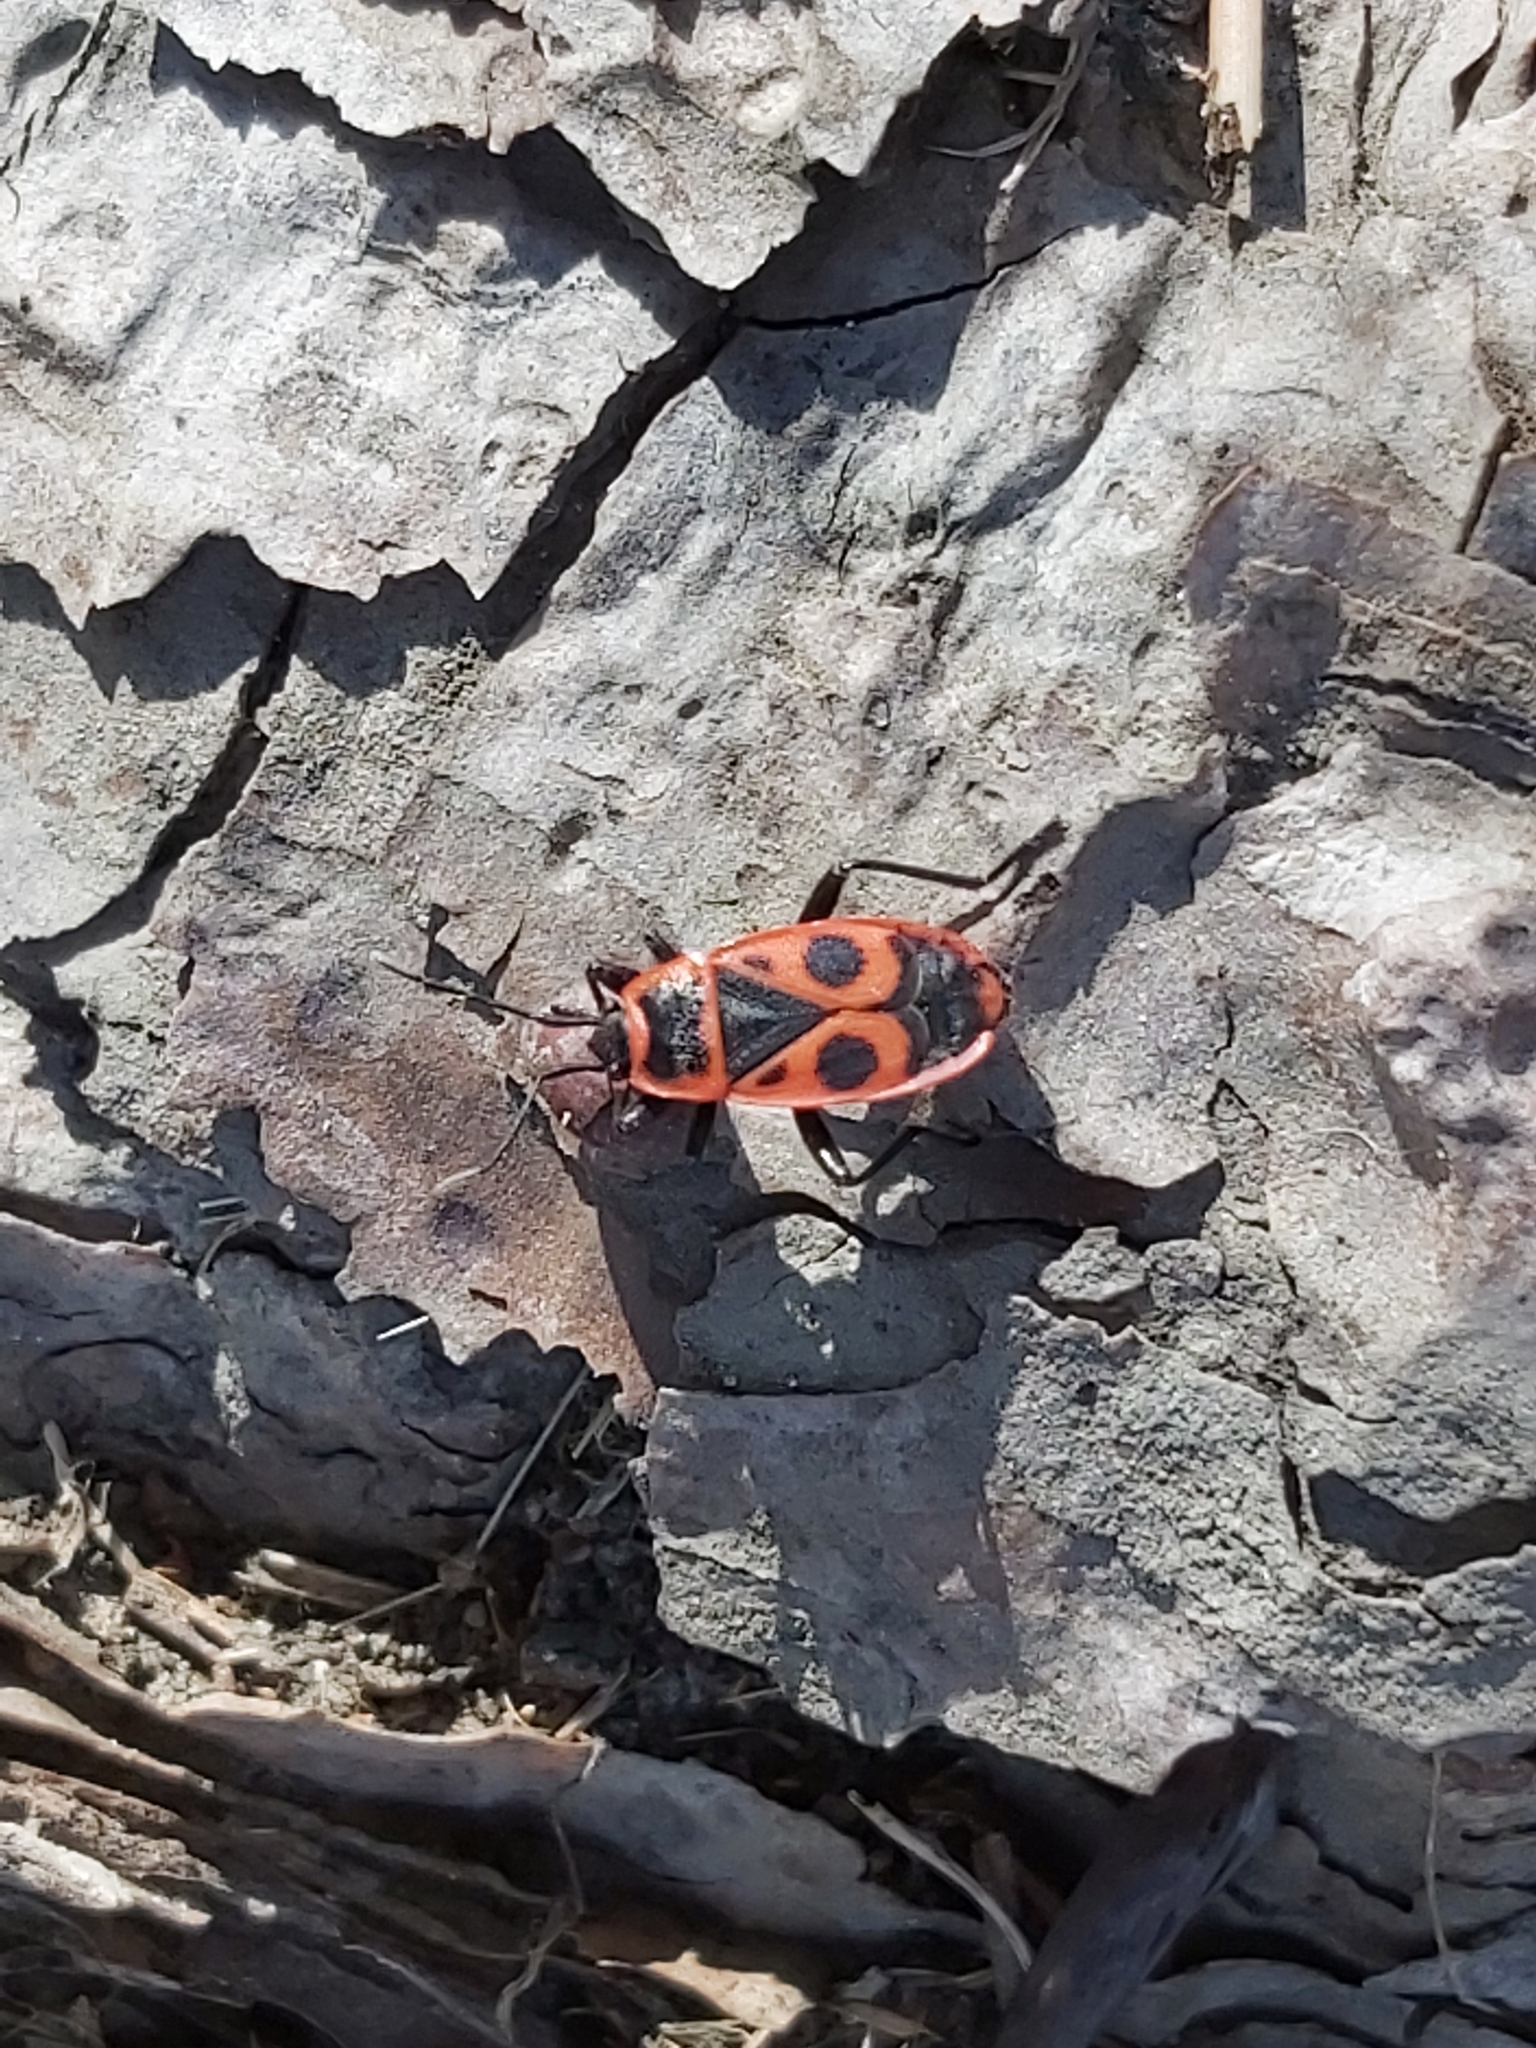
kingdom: Animalia
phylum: Arthropoda
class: Insecta
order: Hemiptera
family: Pyrrhocoridae
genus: Pyrrhocoris
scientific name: Pyrrhocoris apterus
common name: Firebug
